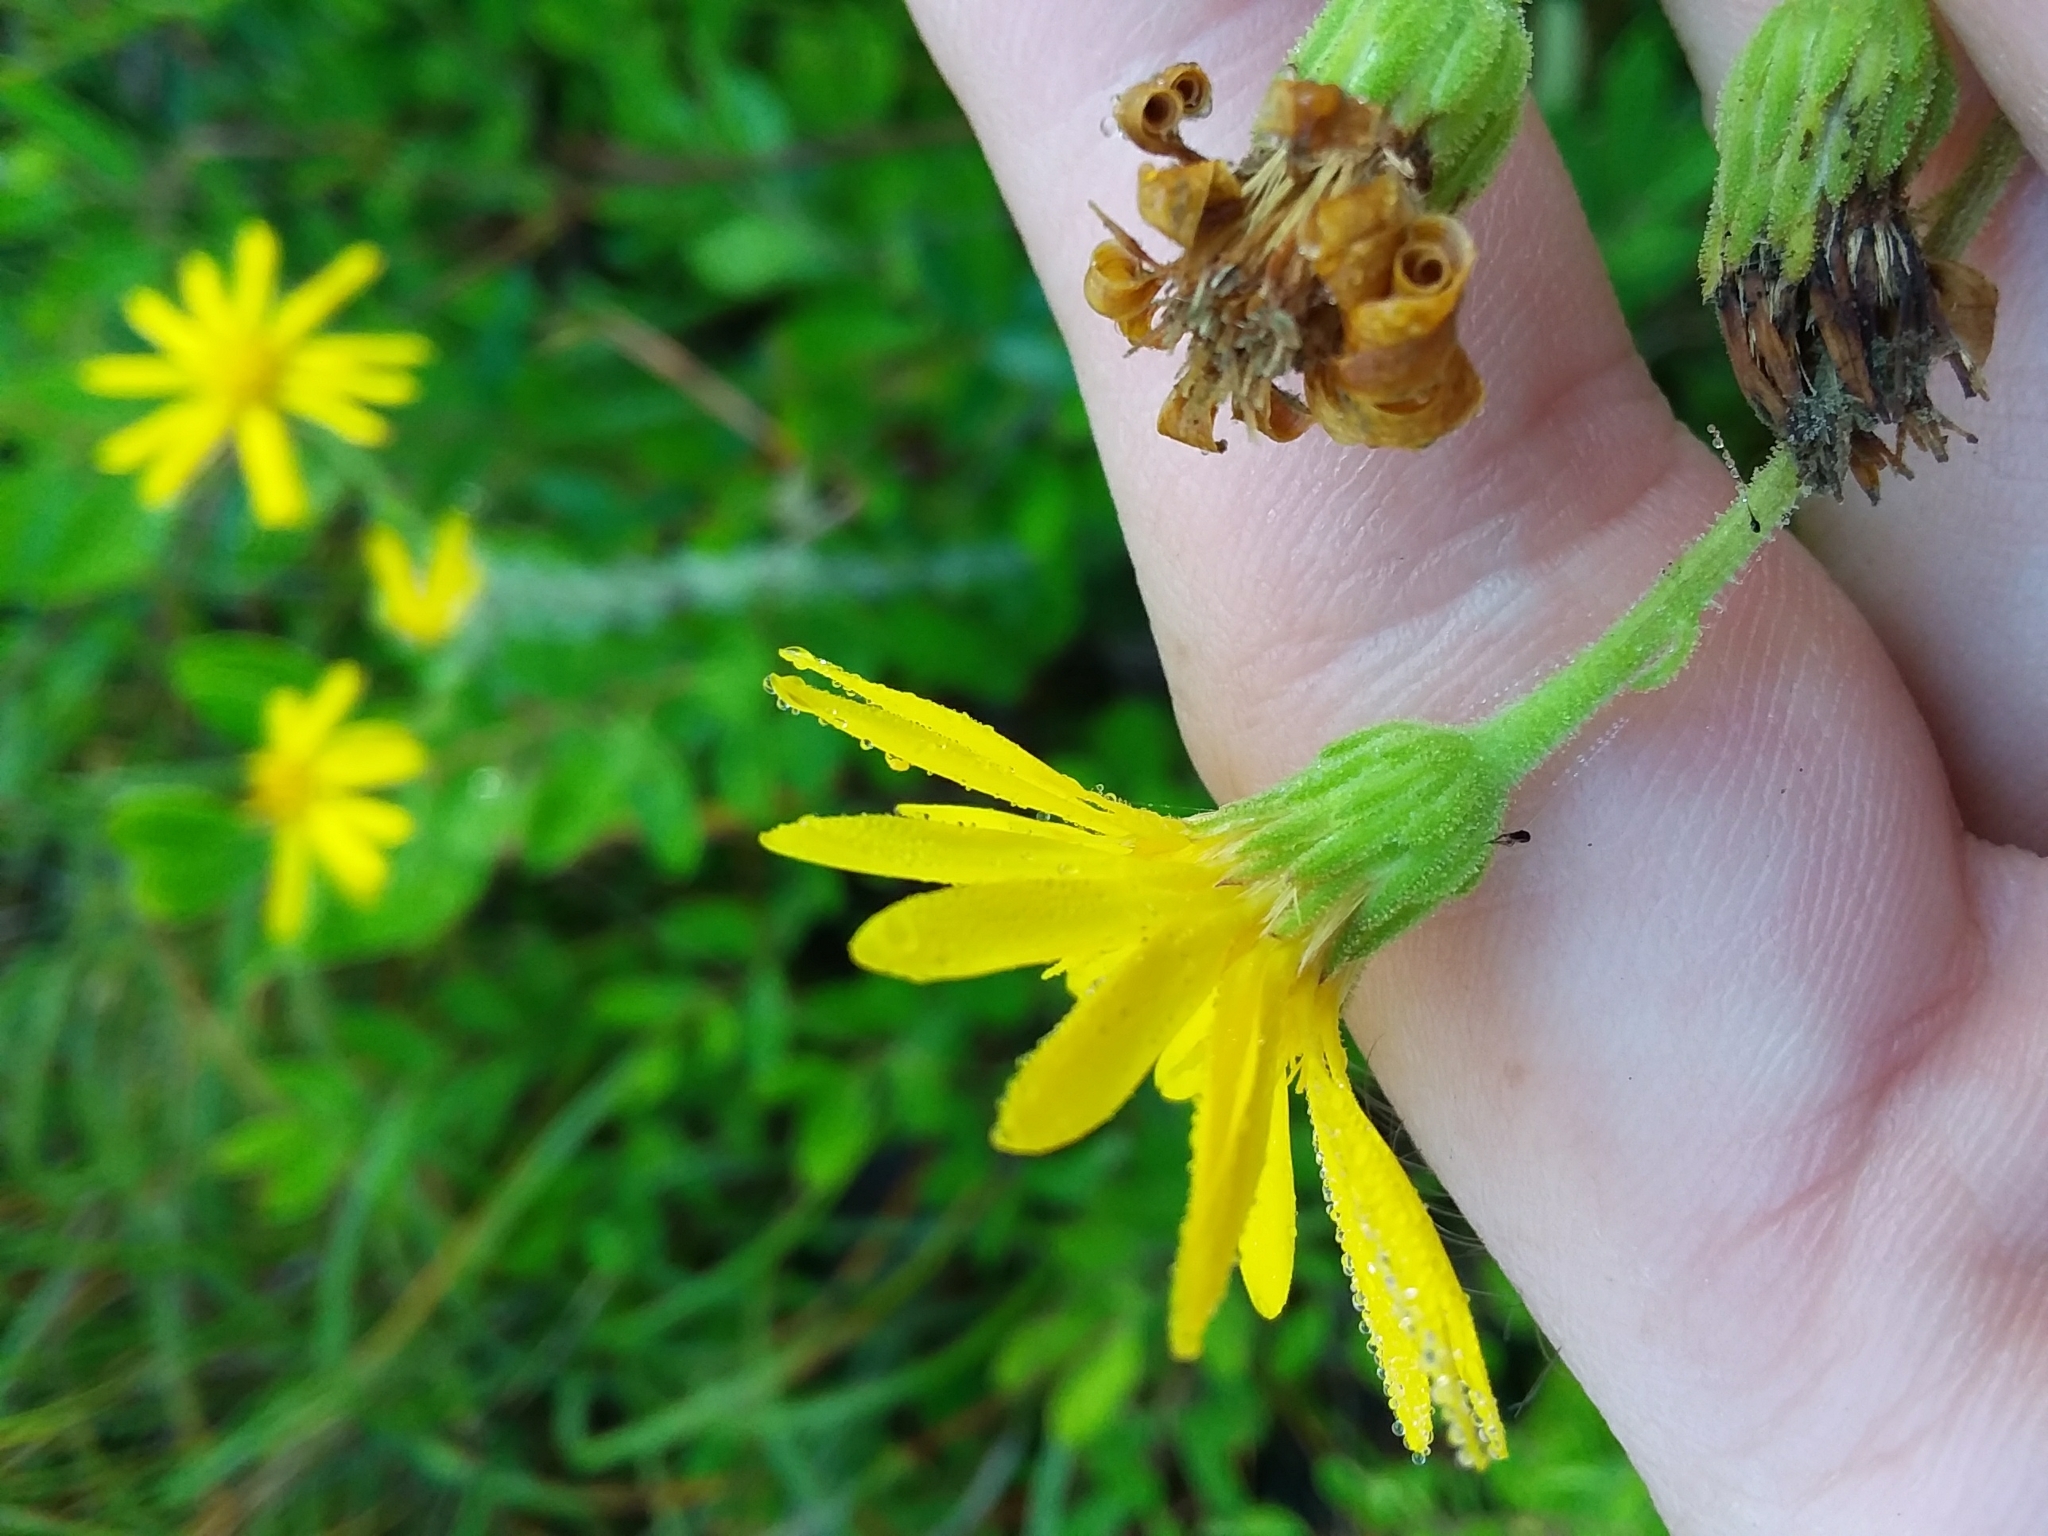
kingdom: Plantae
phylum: Tracheophyta
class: Magnoliopsida
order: Asterales
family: Asteraceae
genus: Chrysopsis
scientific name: Chrysopsis mariana
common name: Maryland golden-aster
